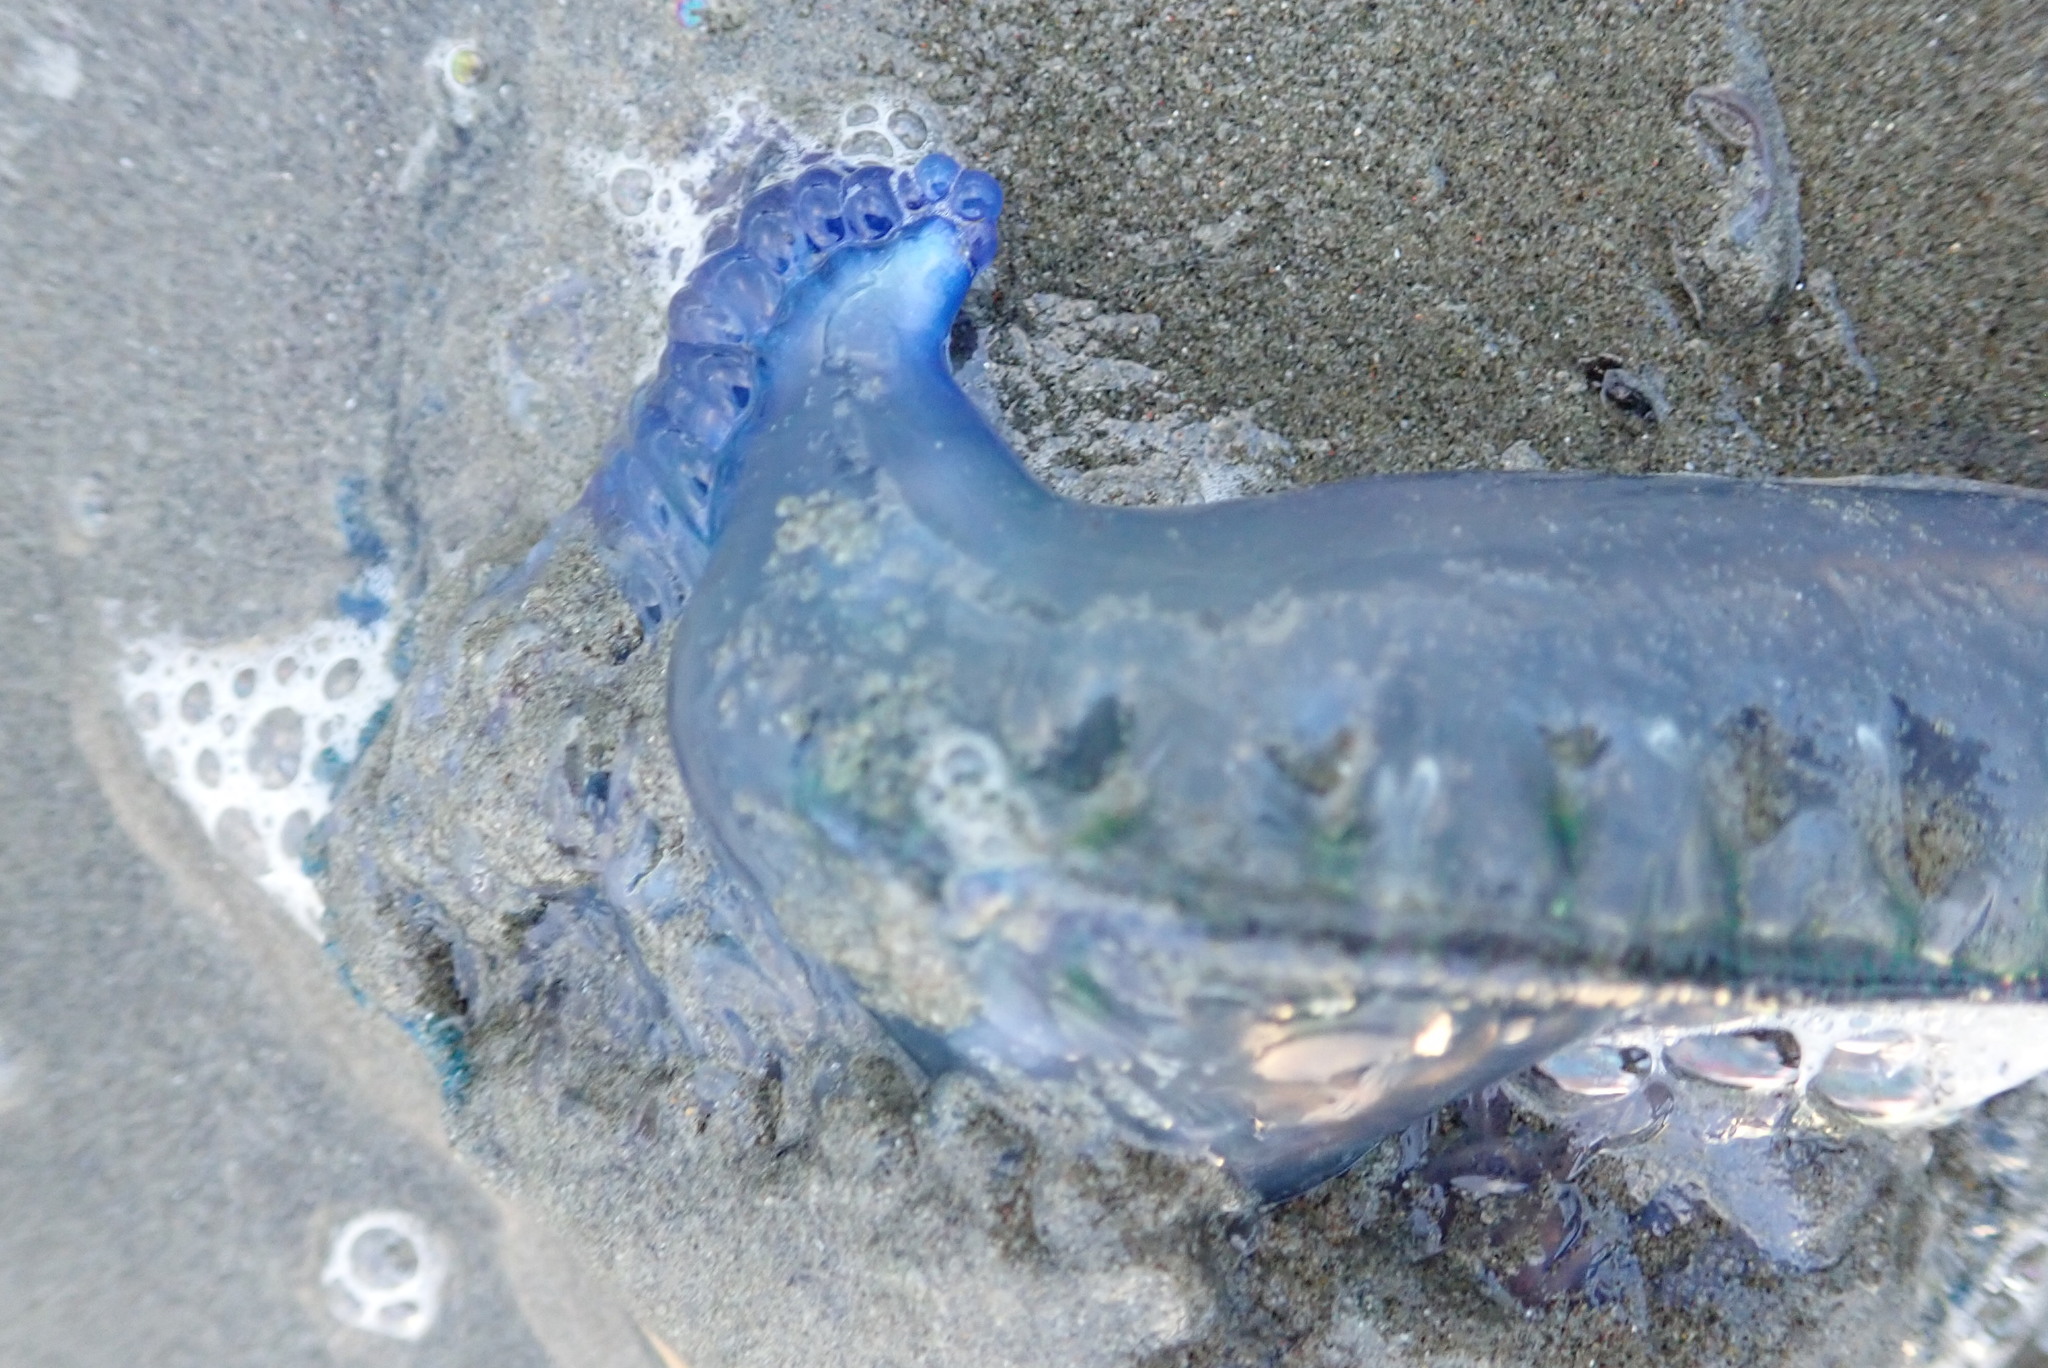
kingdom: Animalia
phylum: Cnidaria
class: Hydrozoa
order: Siphonophorae
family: Physaliidae
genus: Physalia
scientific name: Physalia physalis
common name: Portuguese man-of-war
